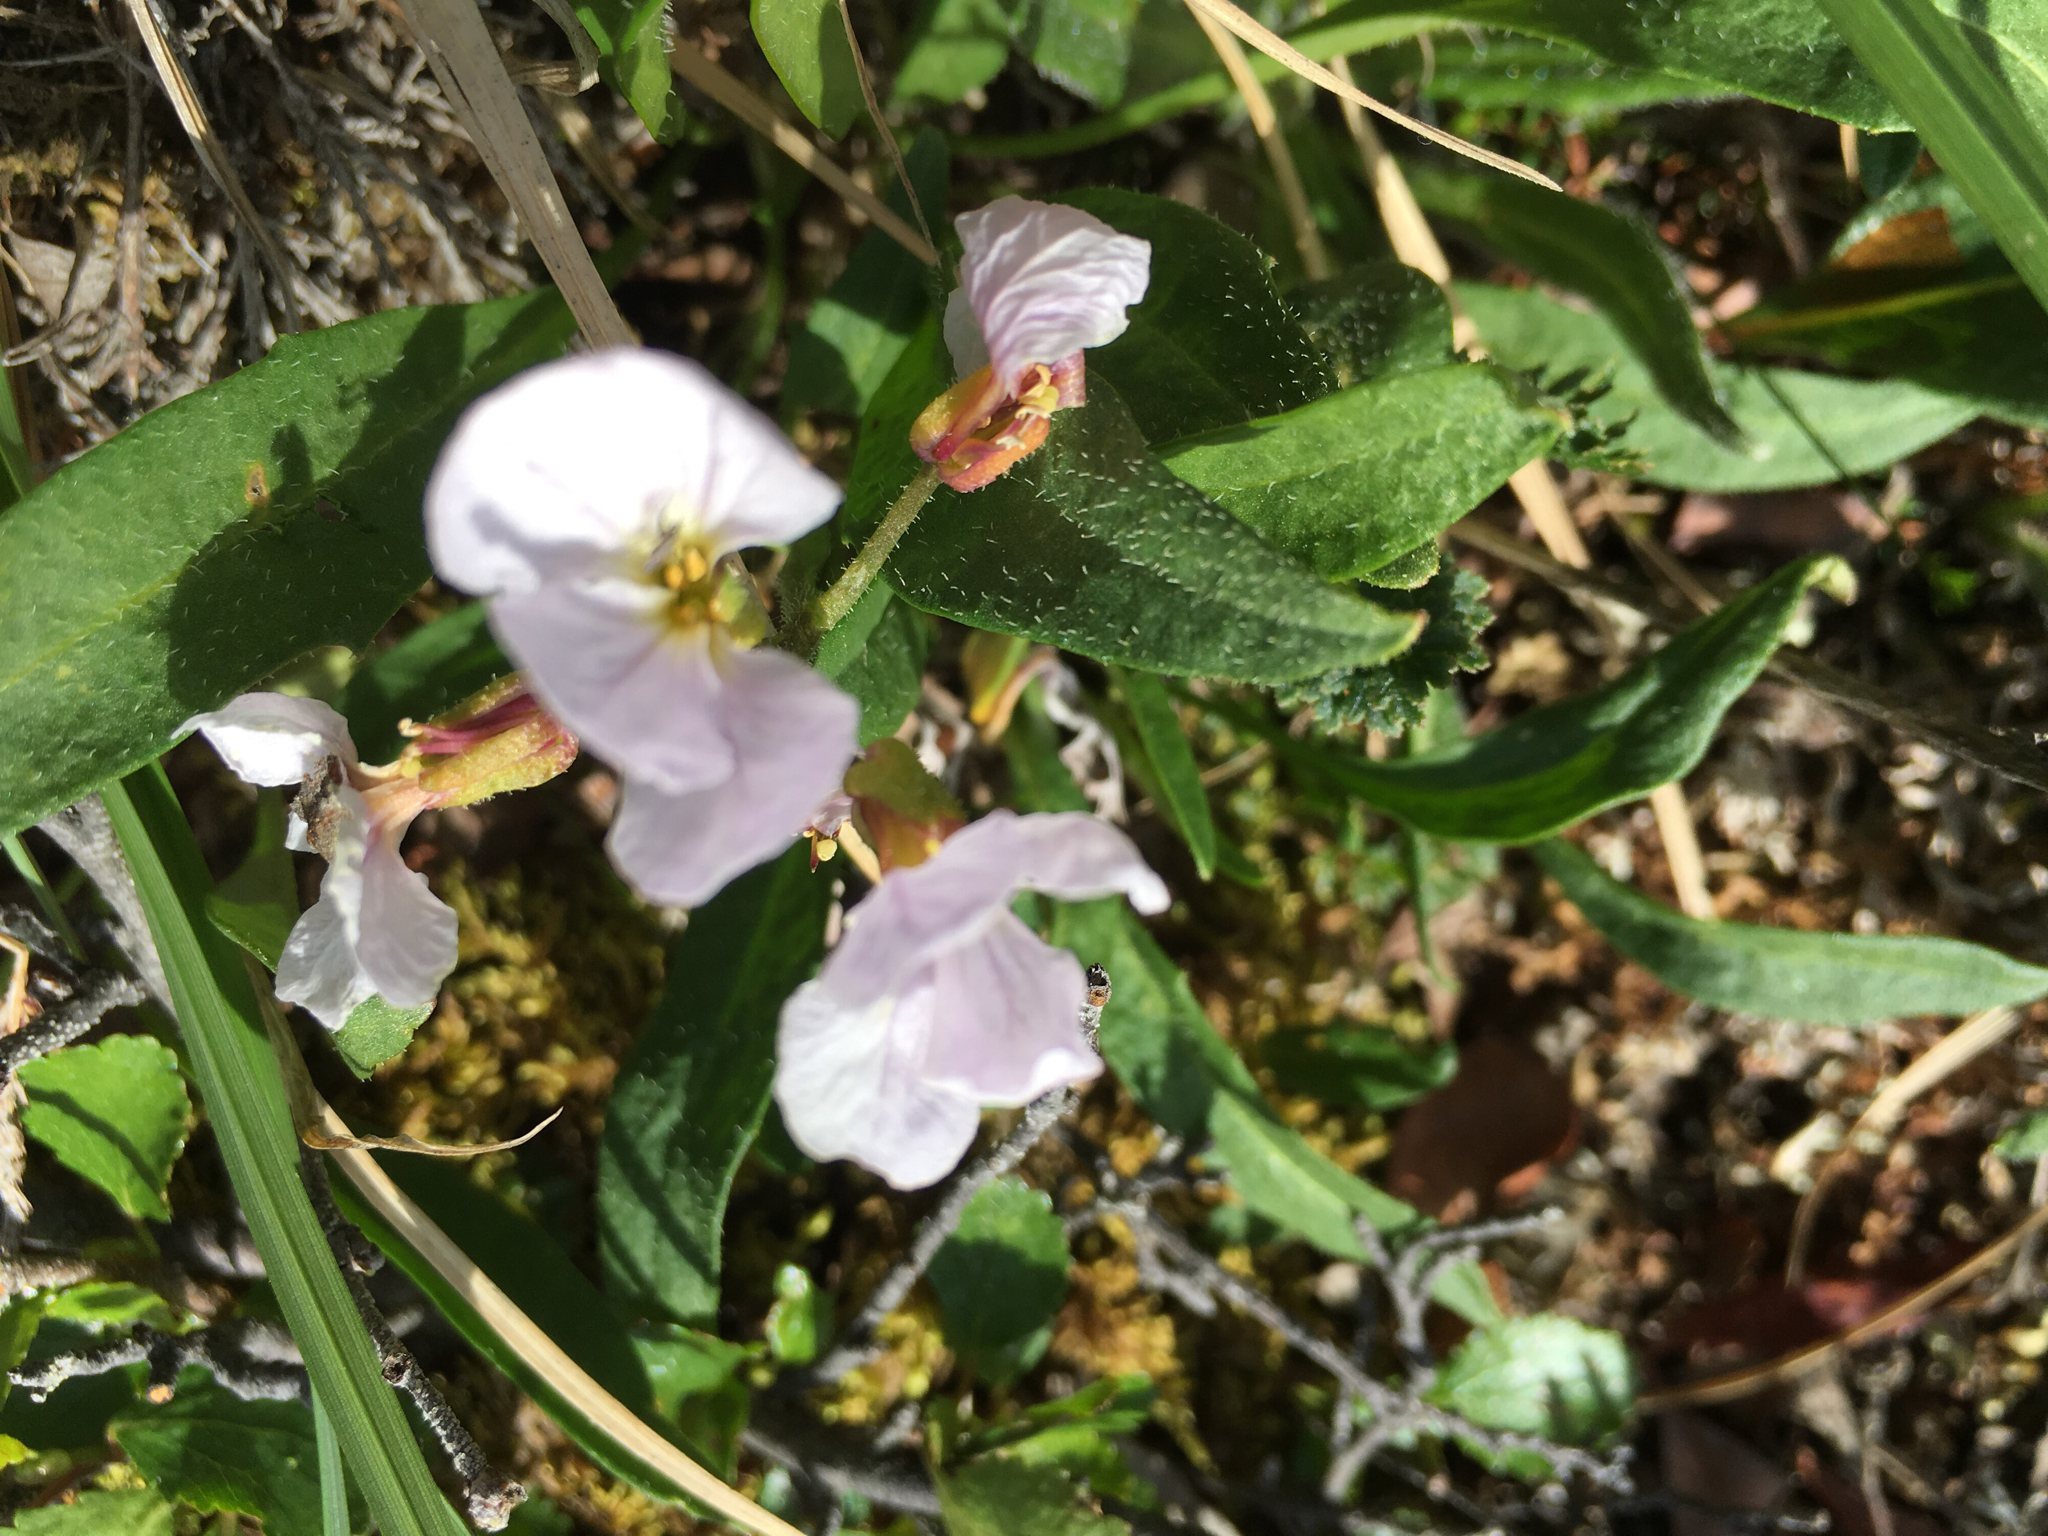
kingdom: Plantae
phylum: Tracheophyta
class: Magnoliopsida
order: Brassicales
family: Brassicaceae
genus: Parrya
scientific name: Parrya nudicaulis
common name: Naked-stemmed false wallflower
